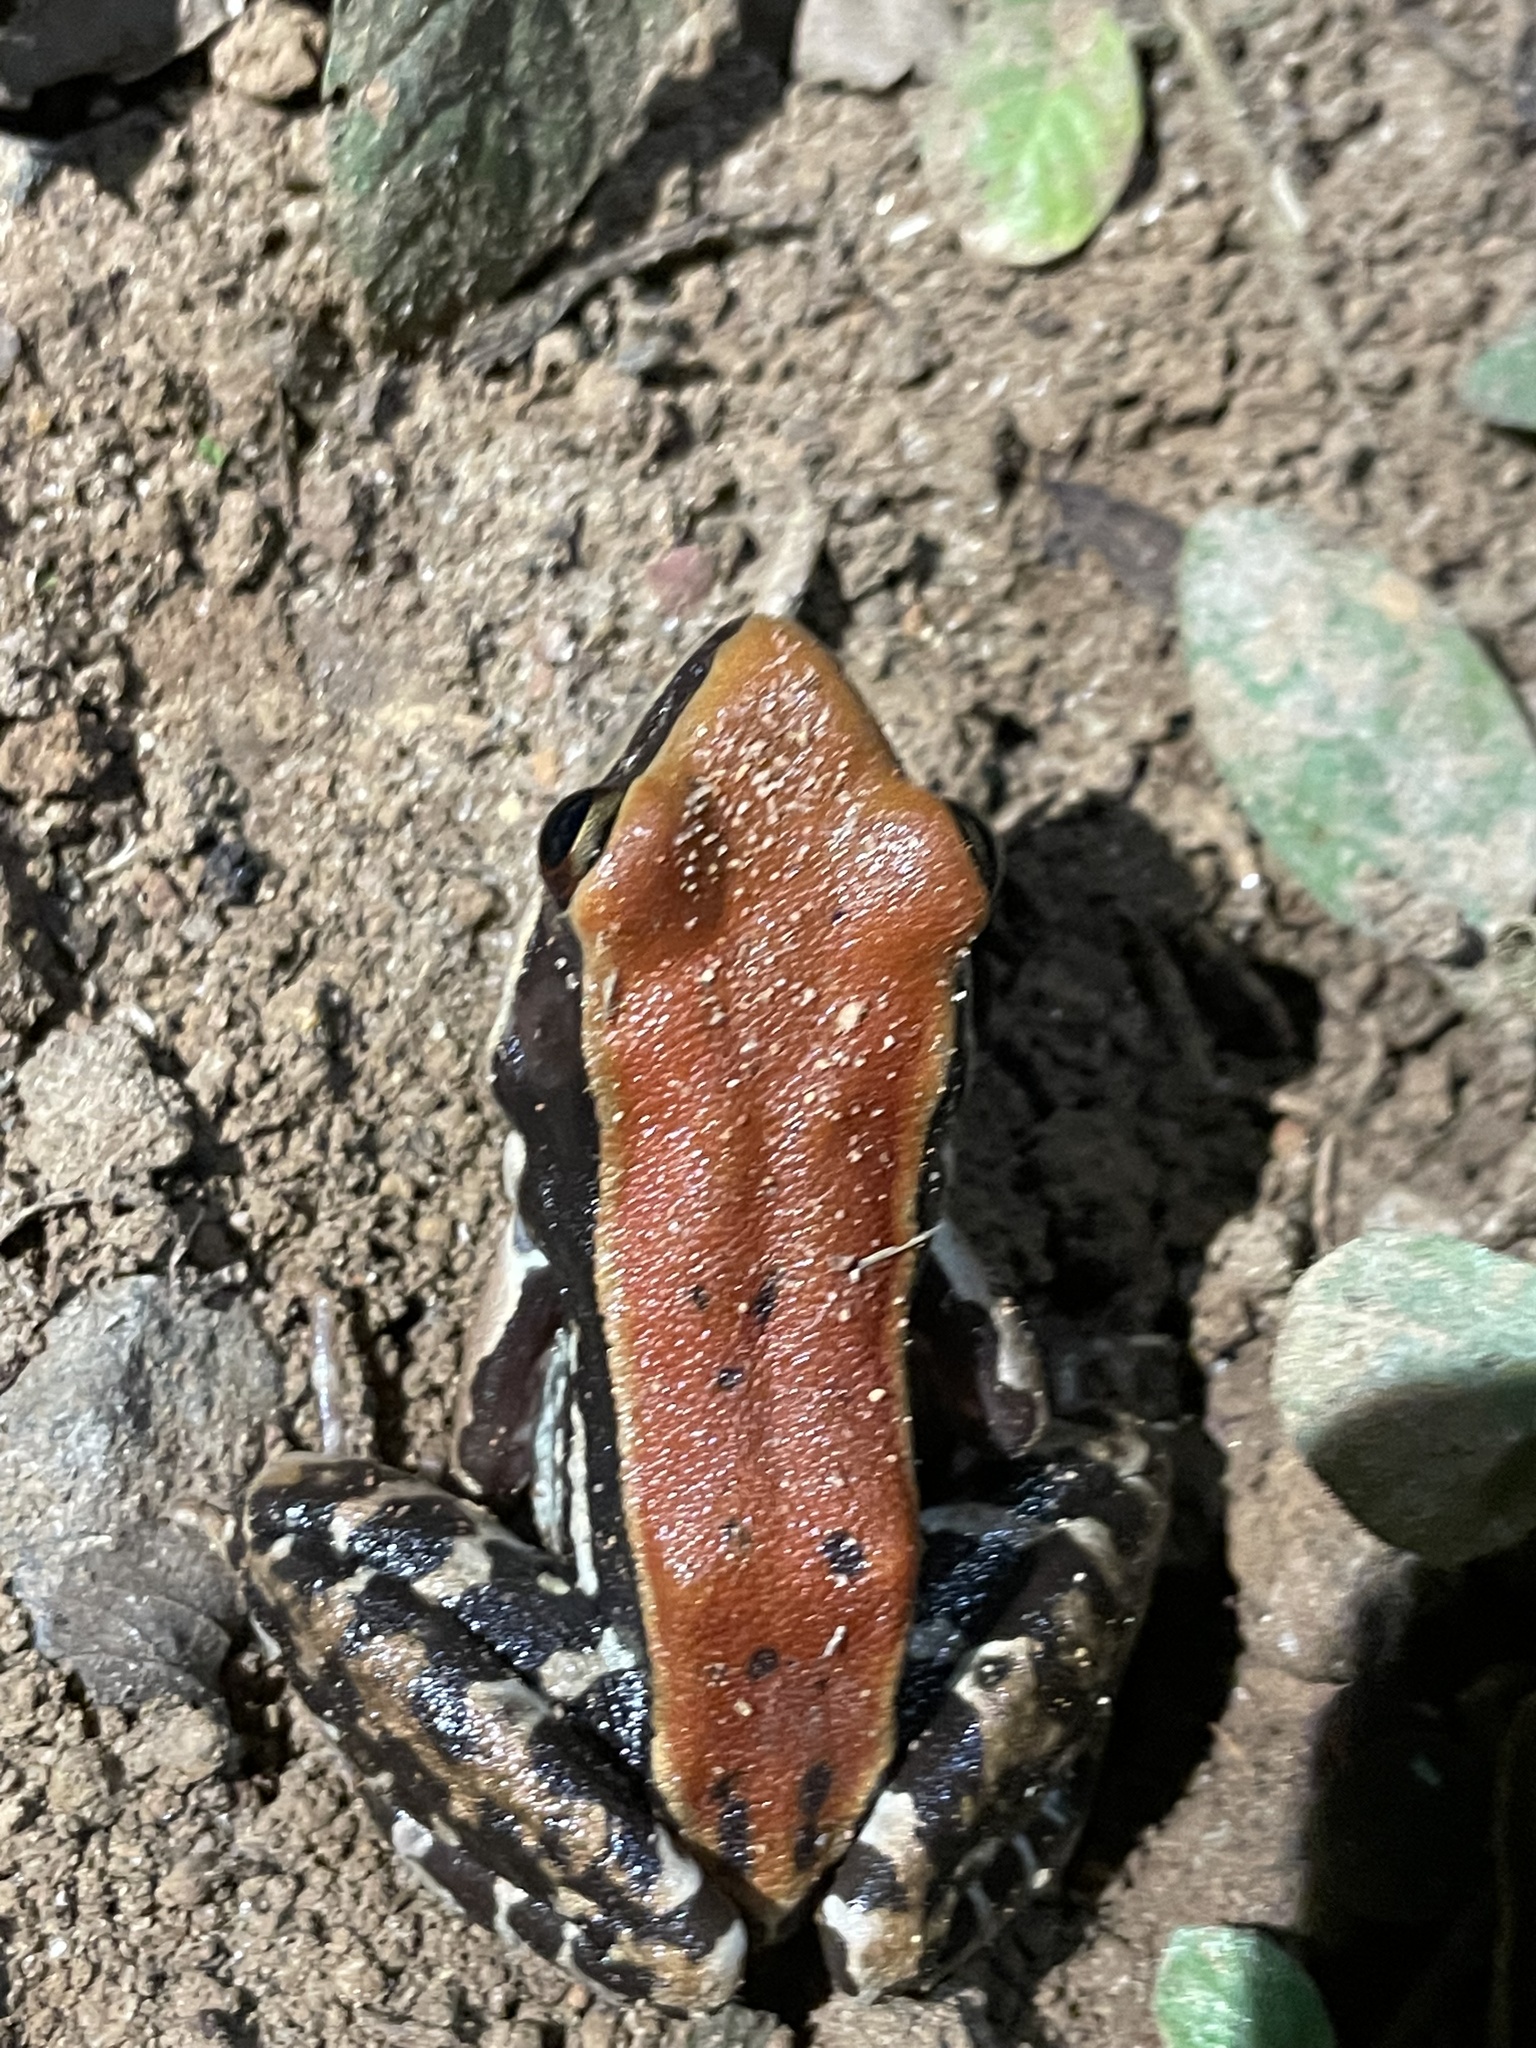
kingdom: Animalia
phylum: Chordata
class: Amphibia
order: Anura
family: Ranidae
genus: Hydrophylax
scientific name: Hydrophylax bahuvistara
